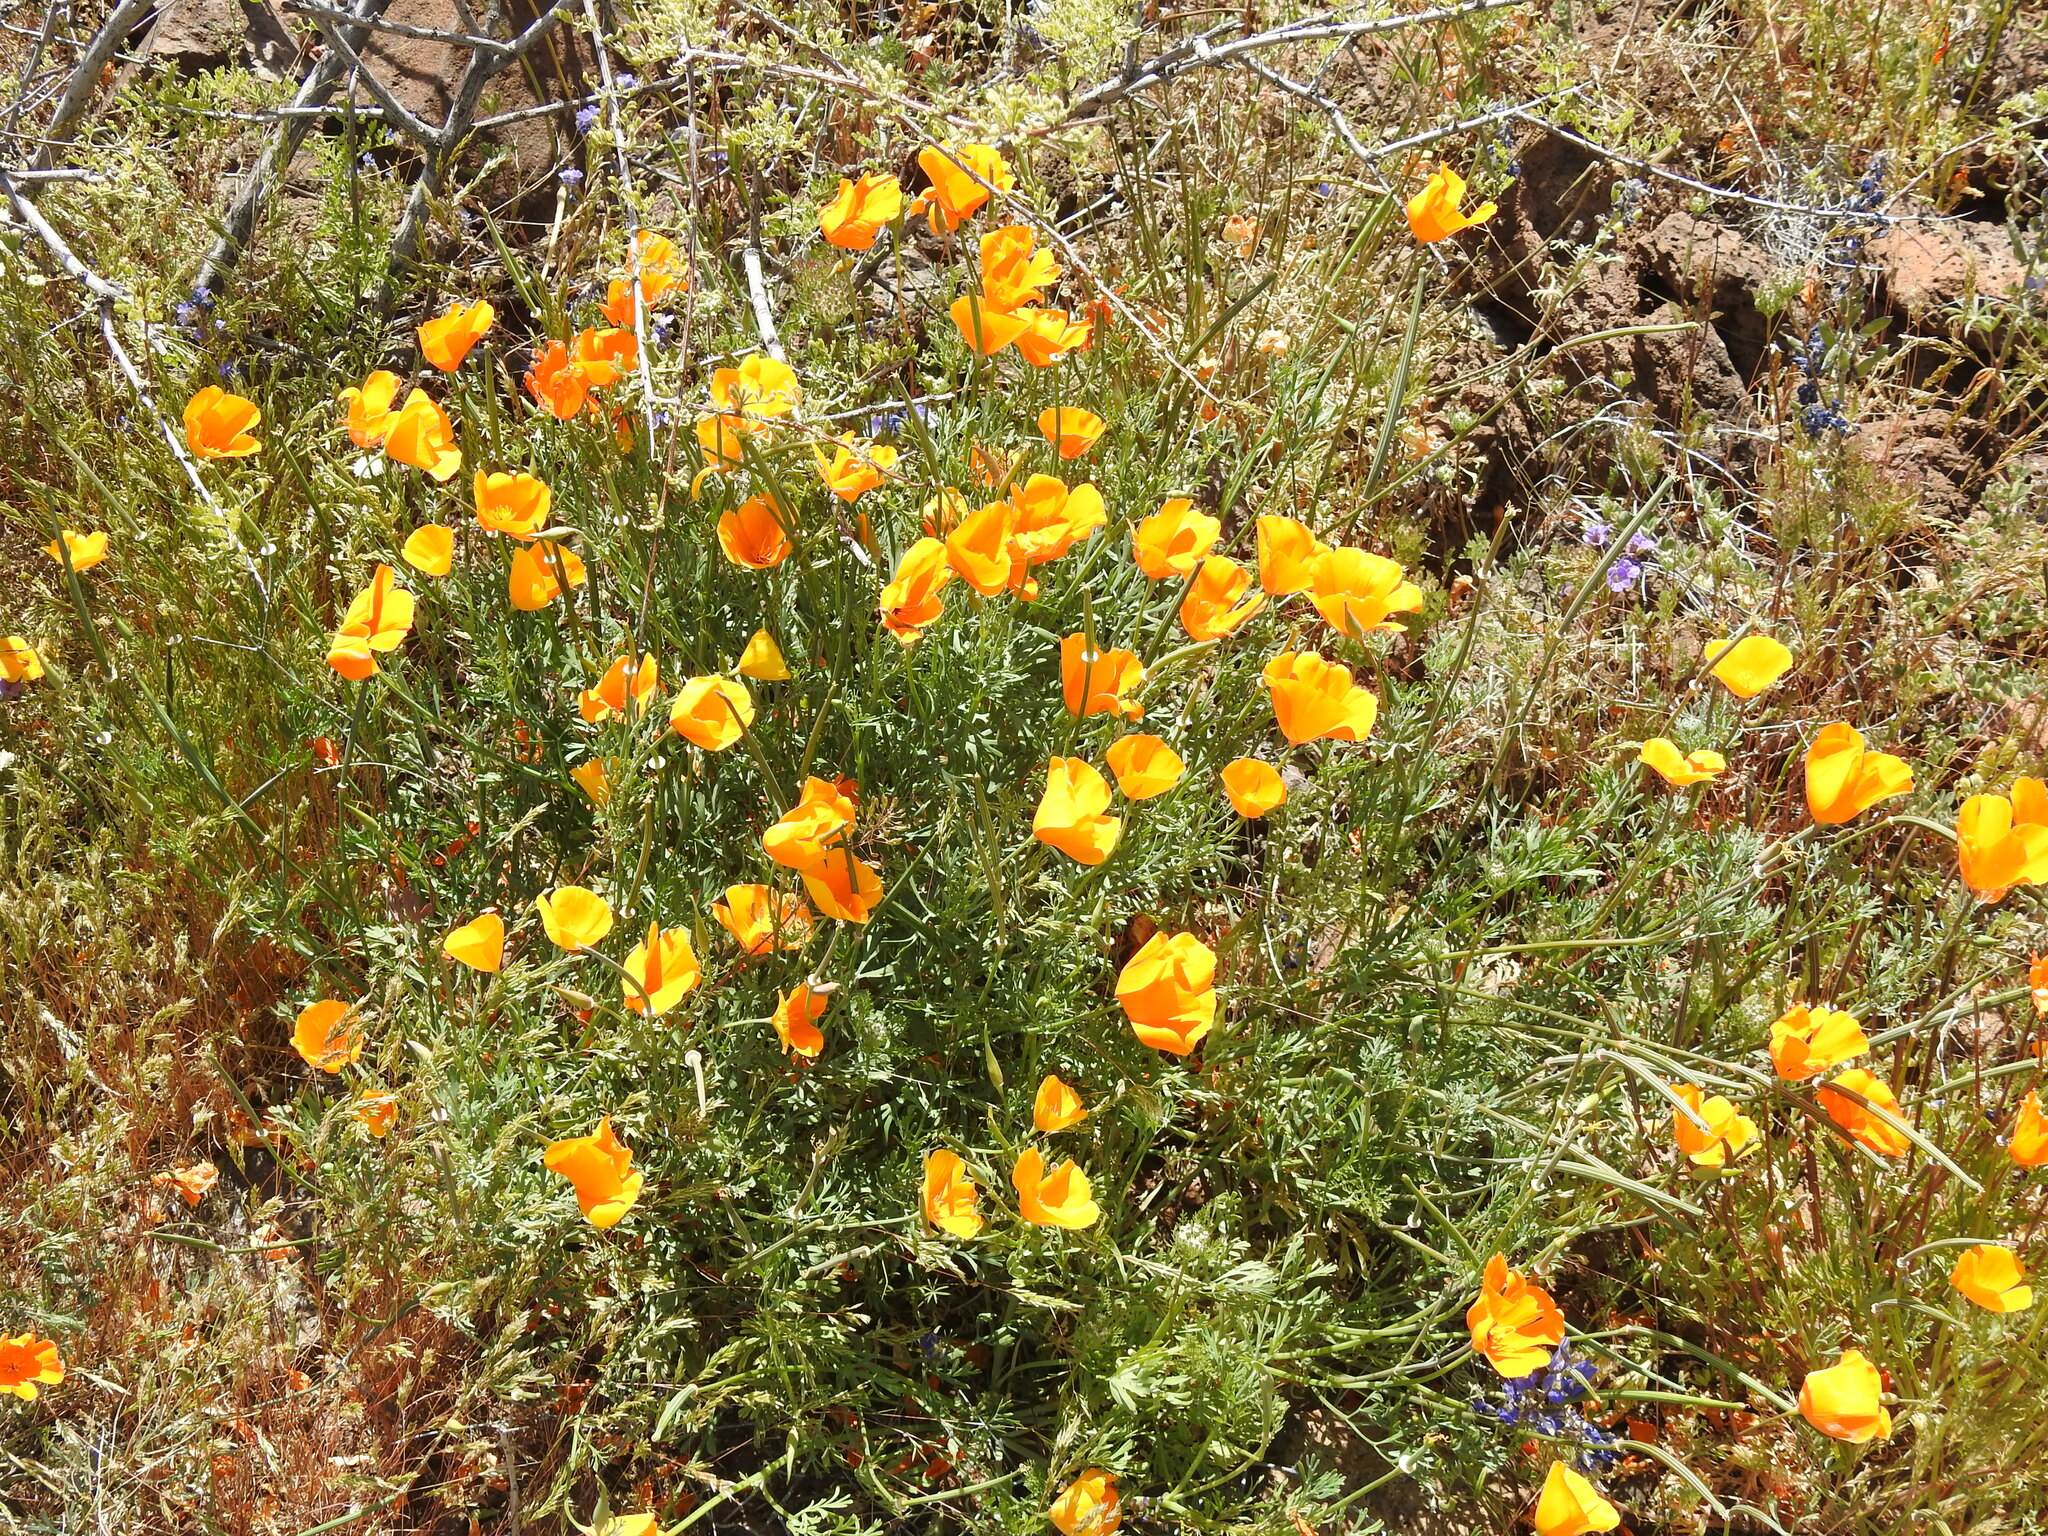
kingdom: Plantae
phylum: Tracheophyta
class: Magnoliopsida
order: Ranunculales
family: Papaveraceae
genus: Eschscholzia
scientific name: Eschscholzia californica
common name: California poppy
